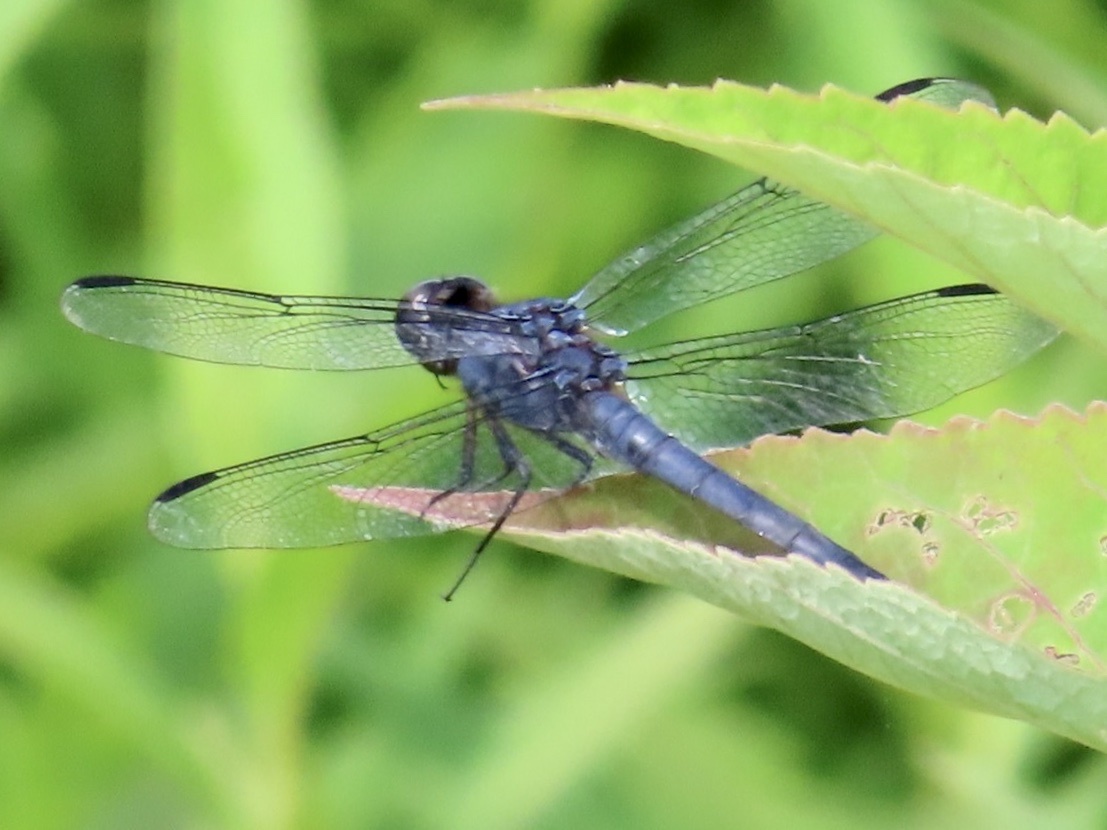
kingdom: Animalia
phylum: Arthropoda
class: Insecta
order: Odonata
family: Libellulidae
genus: Libellula
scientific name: Libellula incesta
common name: Slaty skimmer
